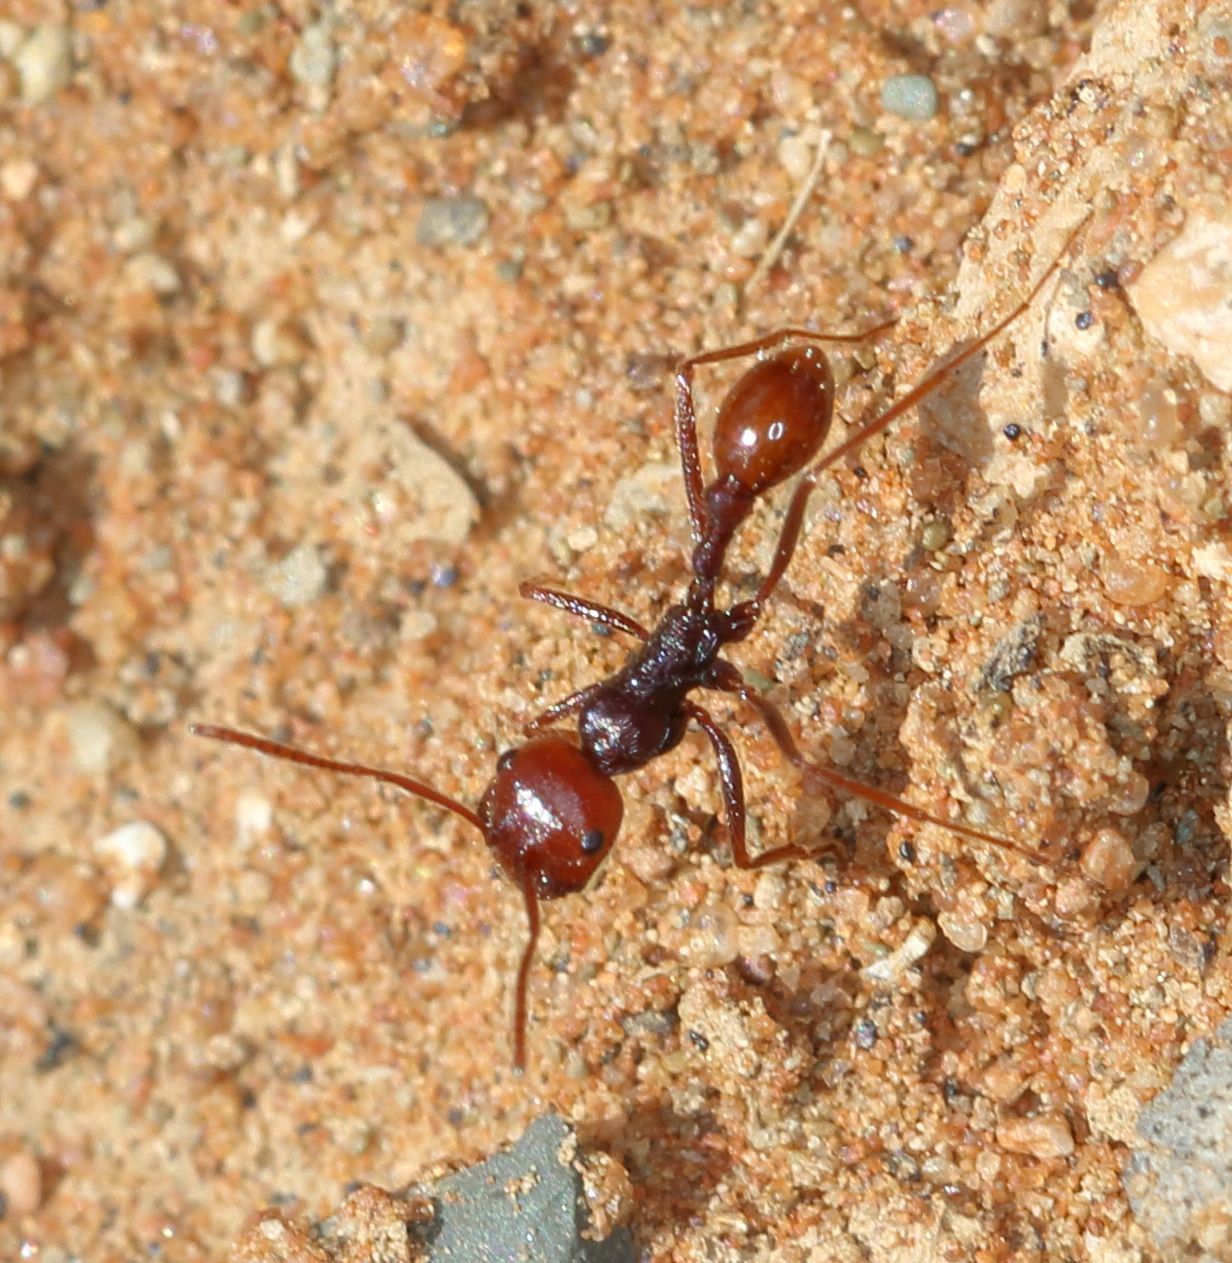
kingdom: Animalia
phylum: Arthropoda
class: Insecta
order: Hymenoptera
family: Formicidae
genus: Ocymyrmex
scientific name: Ocymyrmex dekerus
